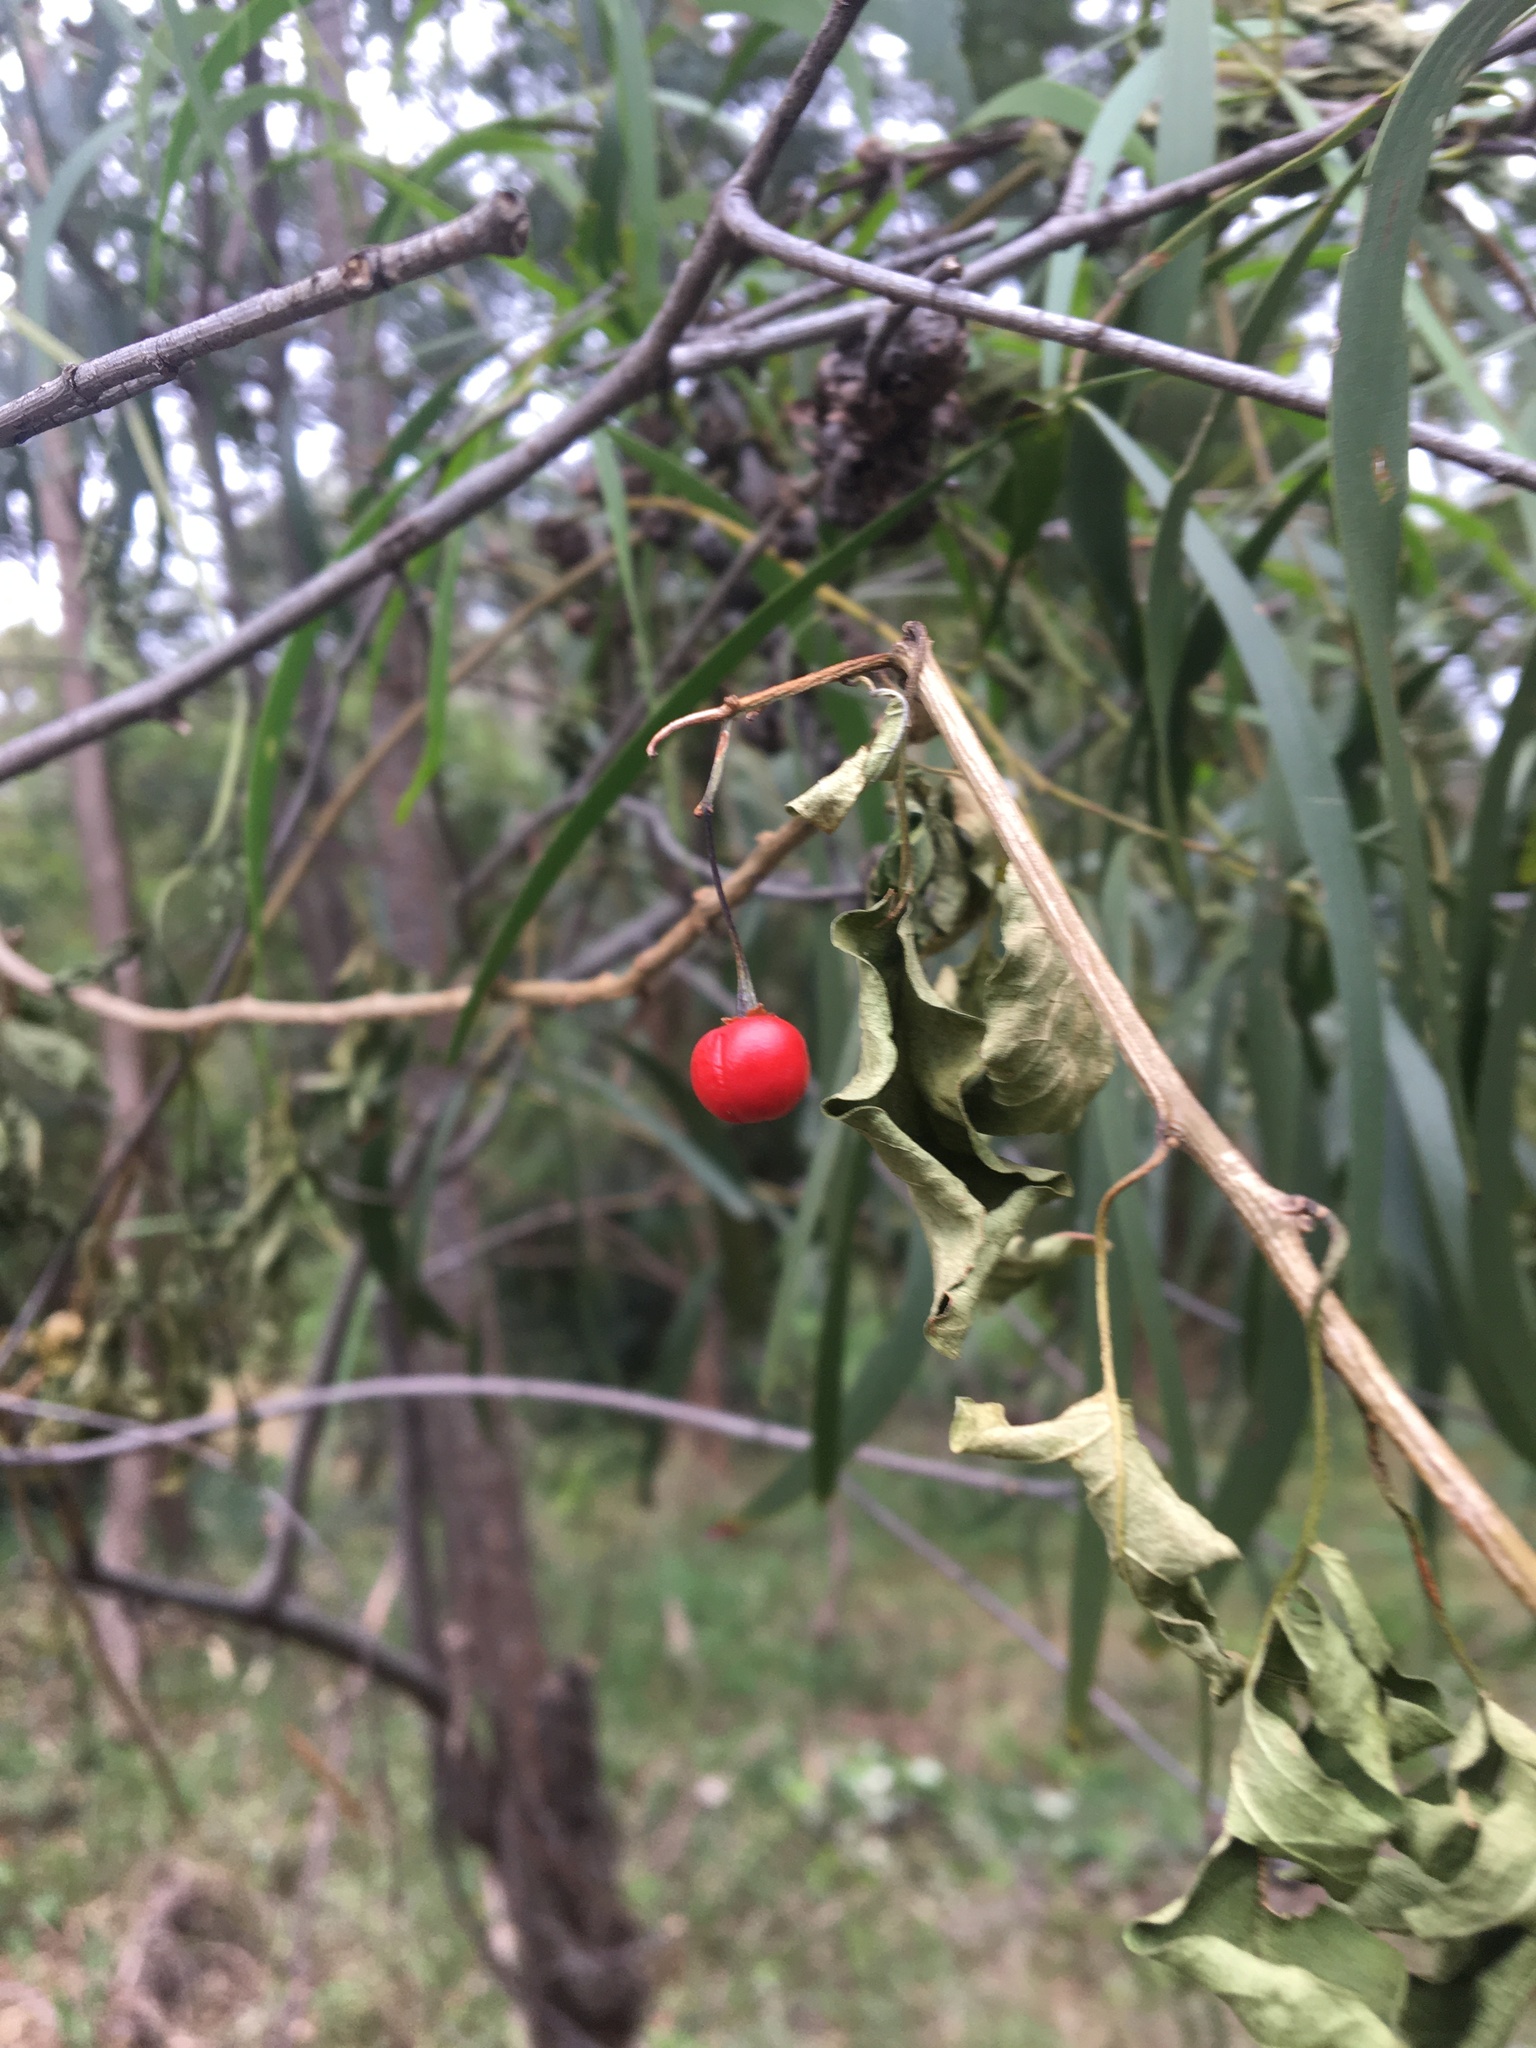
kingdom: Plantae
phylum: Tracheophyta
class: Magnoliopsida
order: Solanales
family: Solanaceae
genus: Solanum
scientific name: Solanum seaforthianum
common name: Brazilian nightshade
